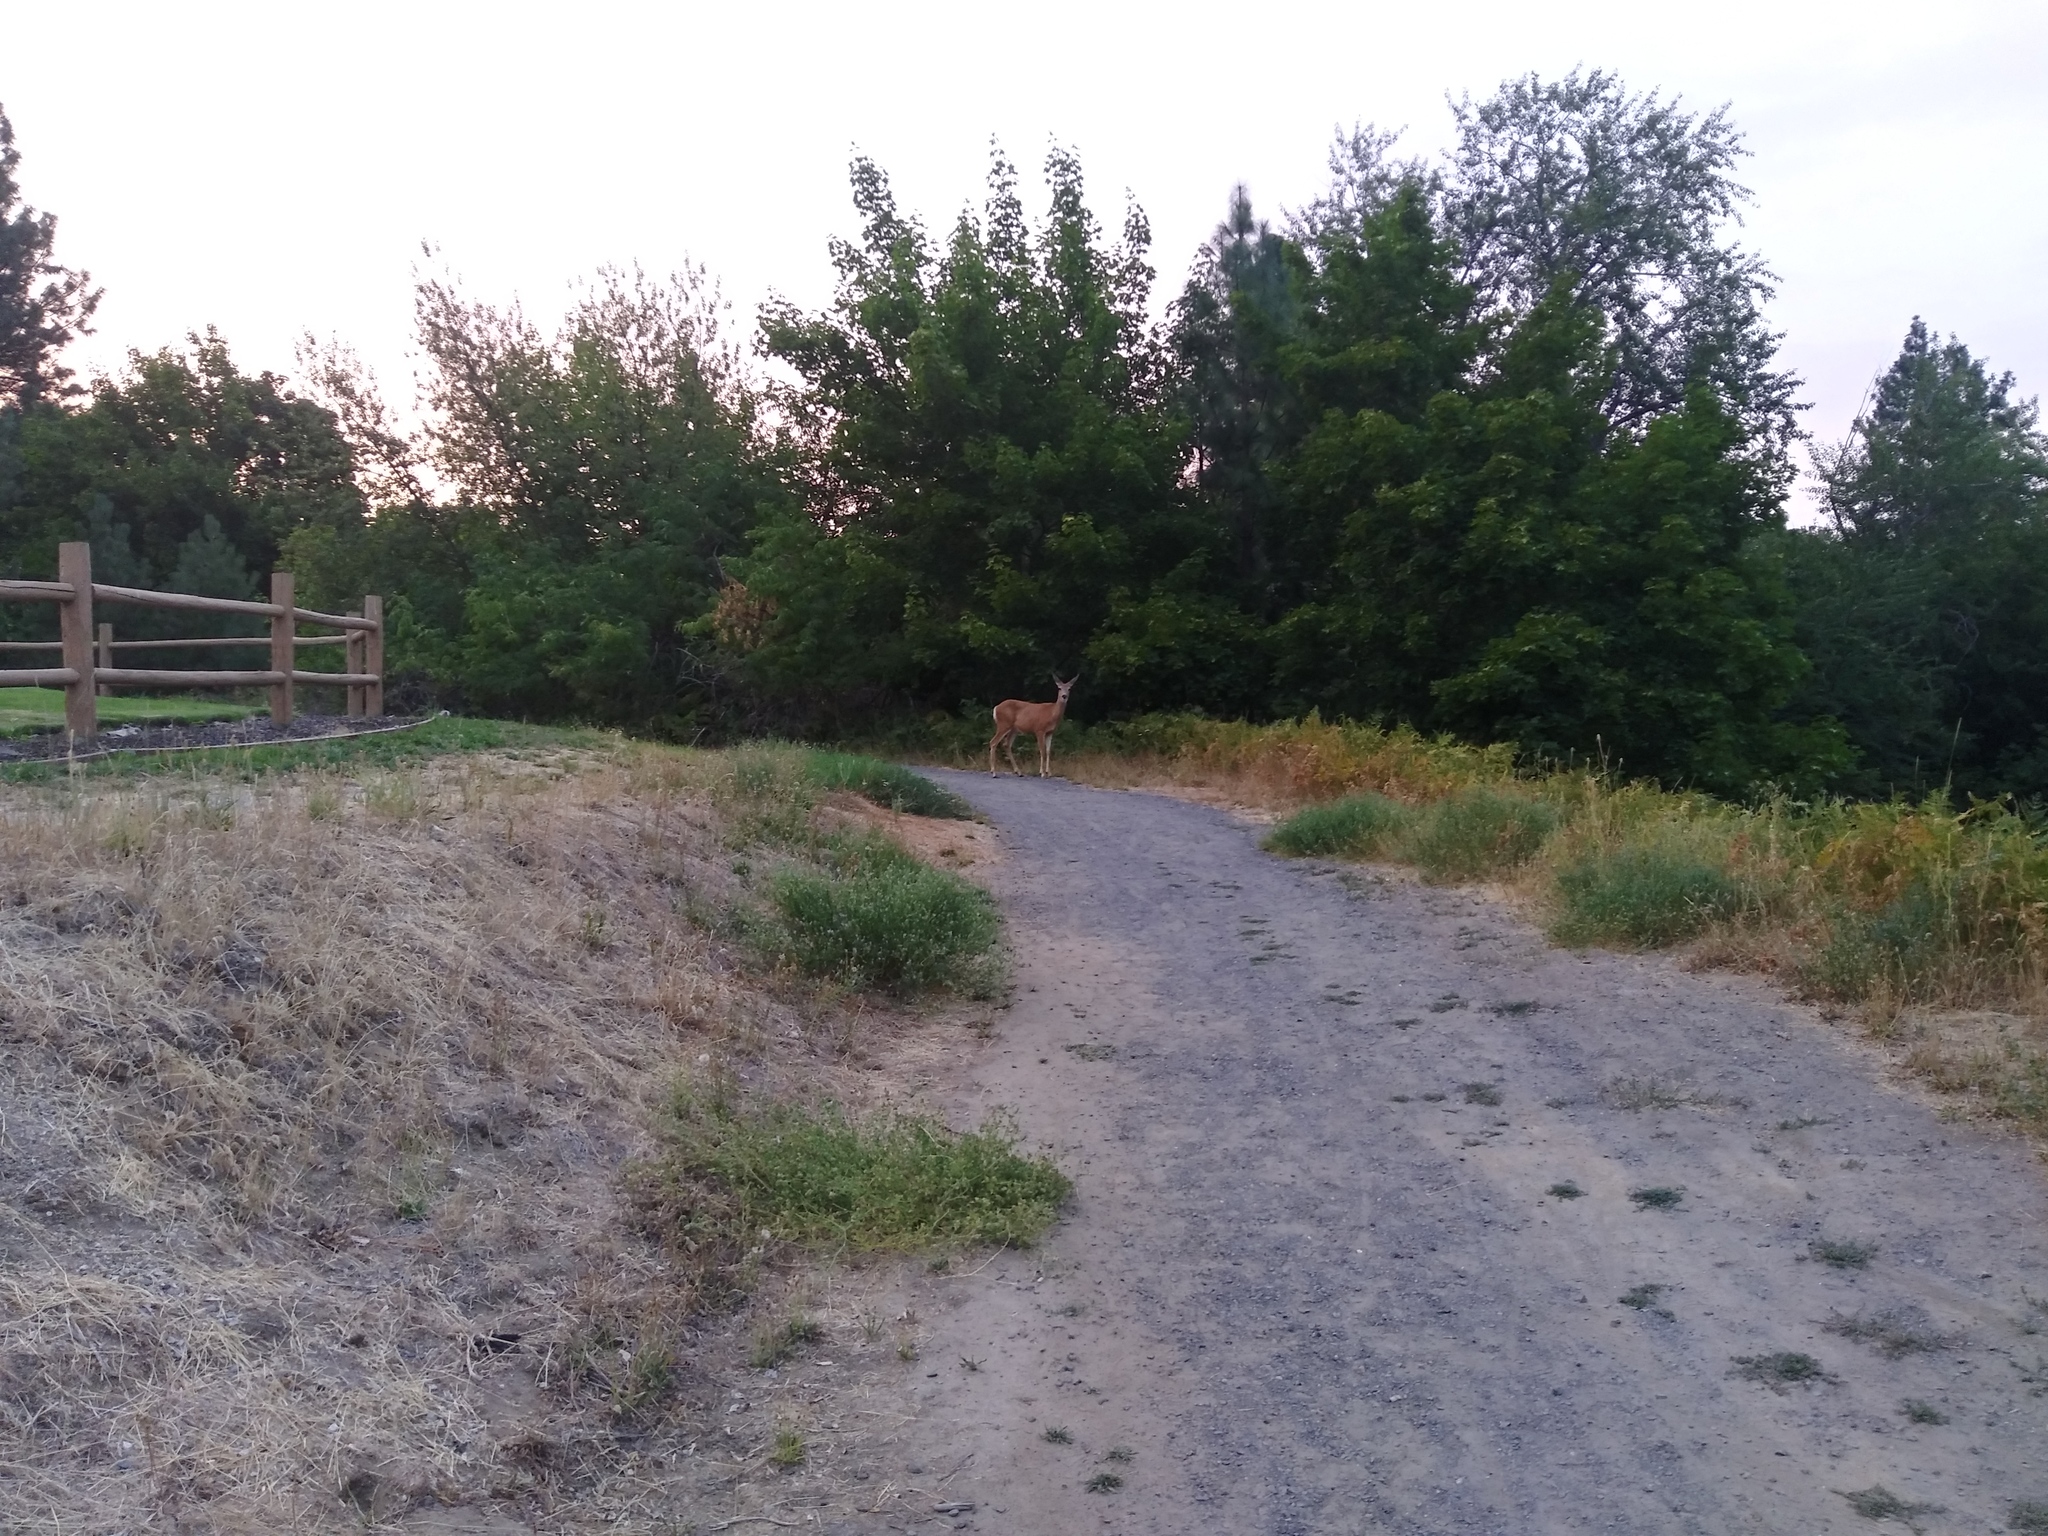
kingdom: Animalia
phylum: Chordata
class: Mammalia
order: Artiodactyla
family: Cervidae
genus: Odocoileus
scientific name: Odocoileus hemionus
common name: Mule deer
